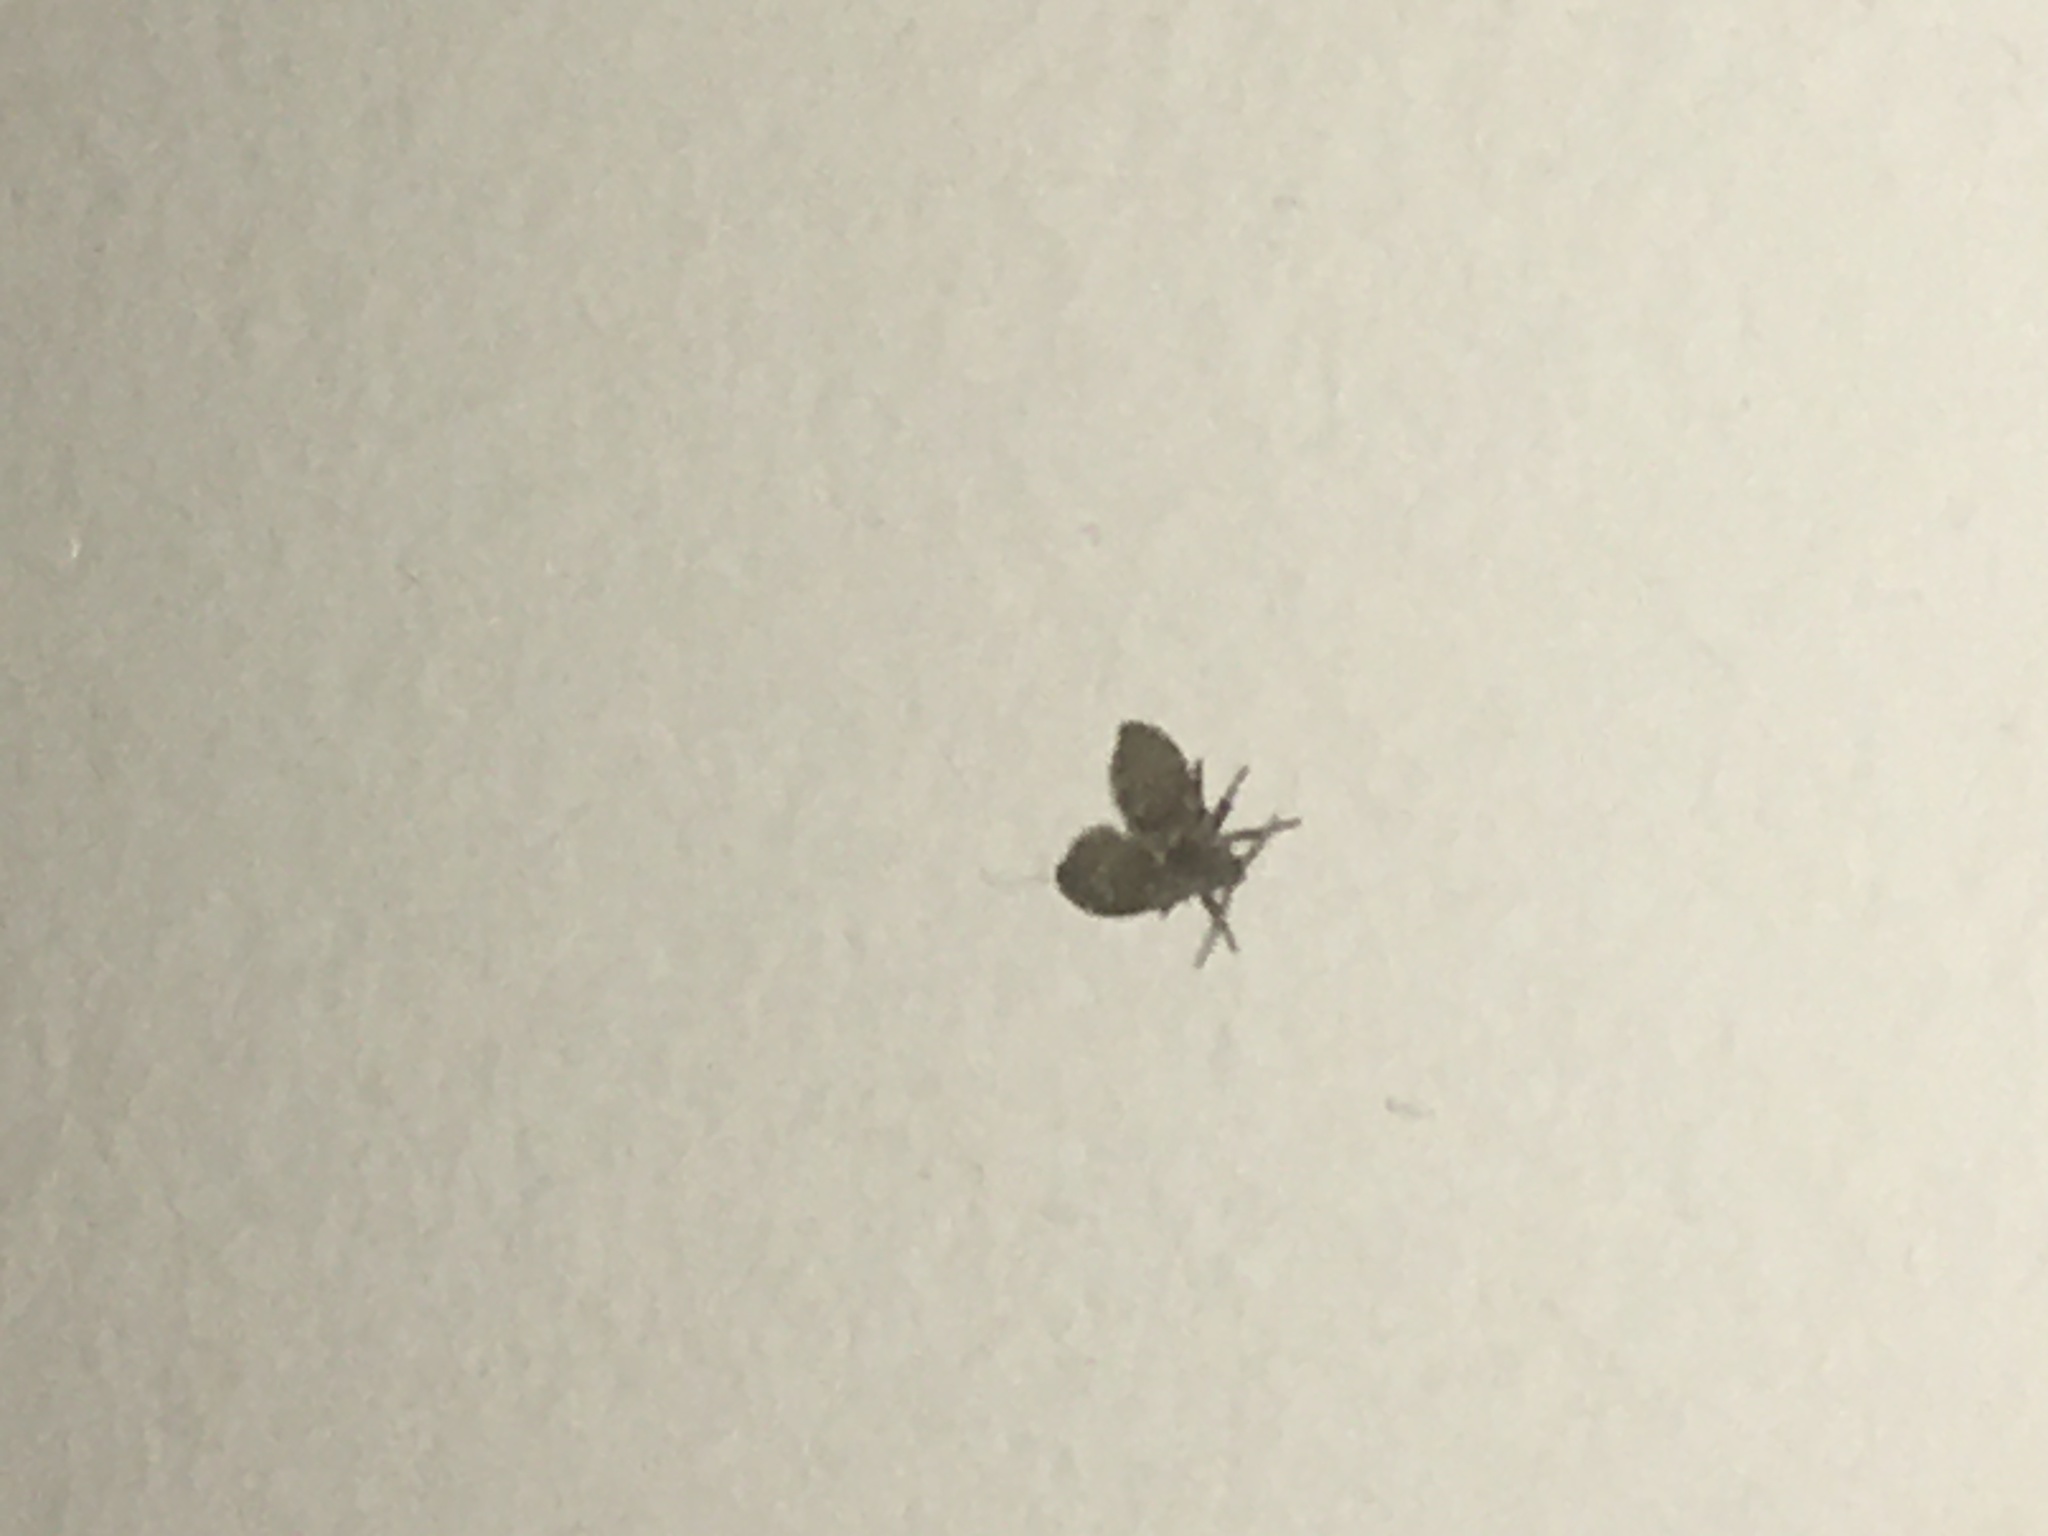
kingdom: Animalia
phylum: Arthropoda
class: Insecta
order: Diptera
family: Psychodidae
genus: Clogmia
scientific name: Clogmia albipunctatus
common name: White-spotted moth fly
